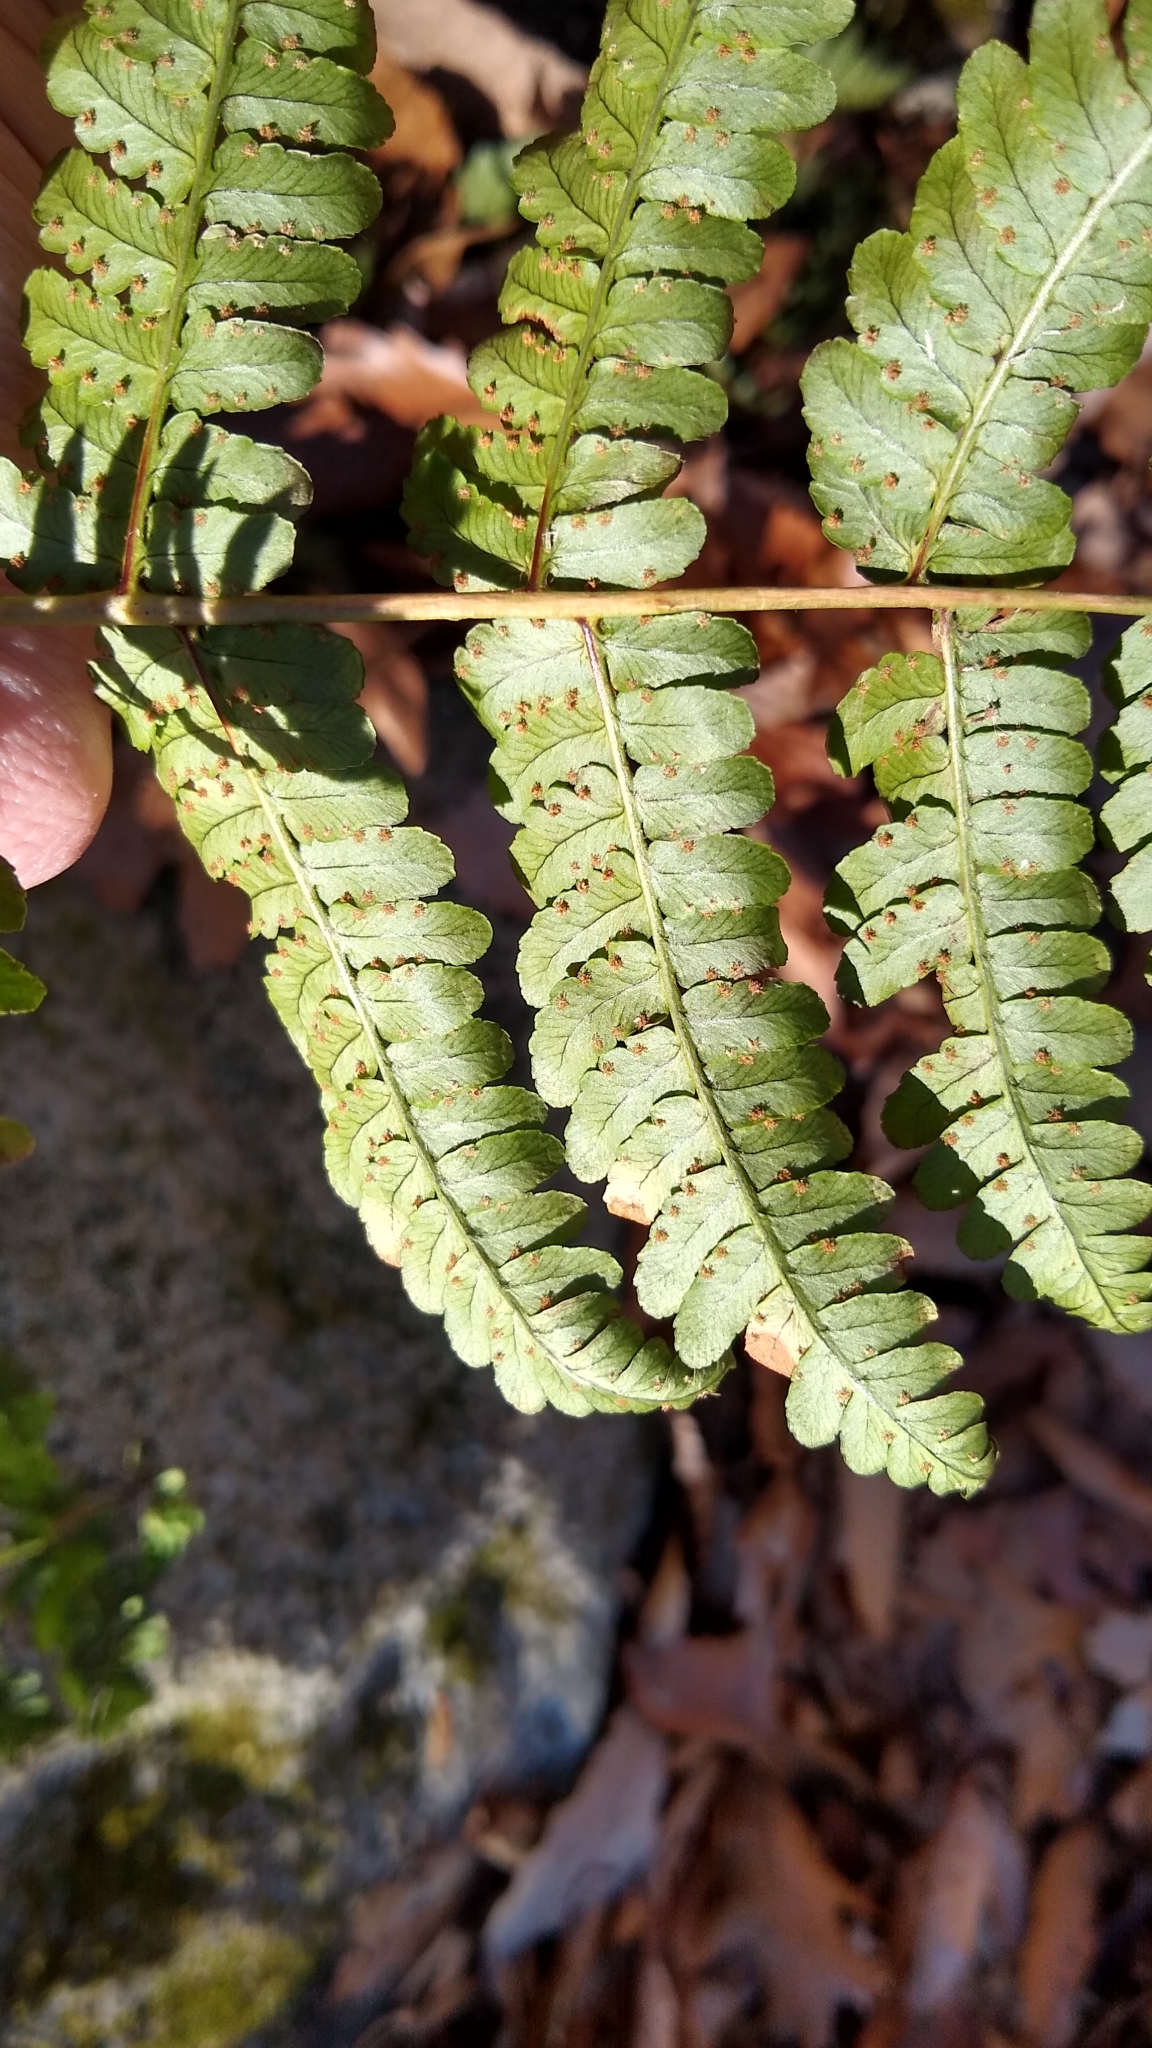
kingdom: Plantae
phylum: Tracheophyta
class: Polypodiopsida
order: Polypodiales
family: Dryopteridaceae
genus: Dryopteris
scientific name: Dryopteris marginalis
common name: Marginal wood fern
